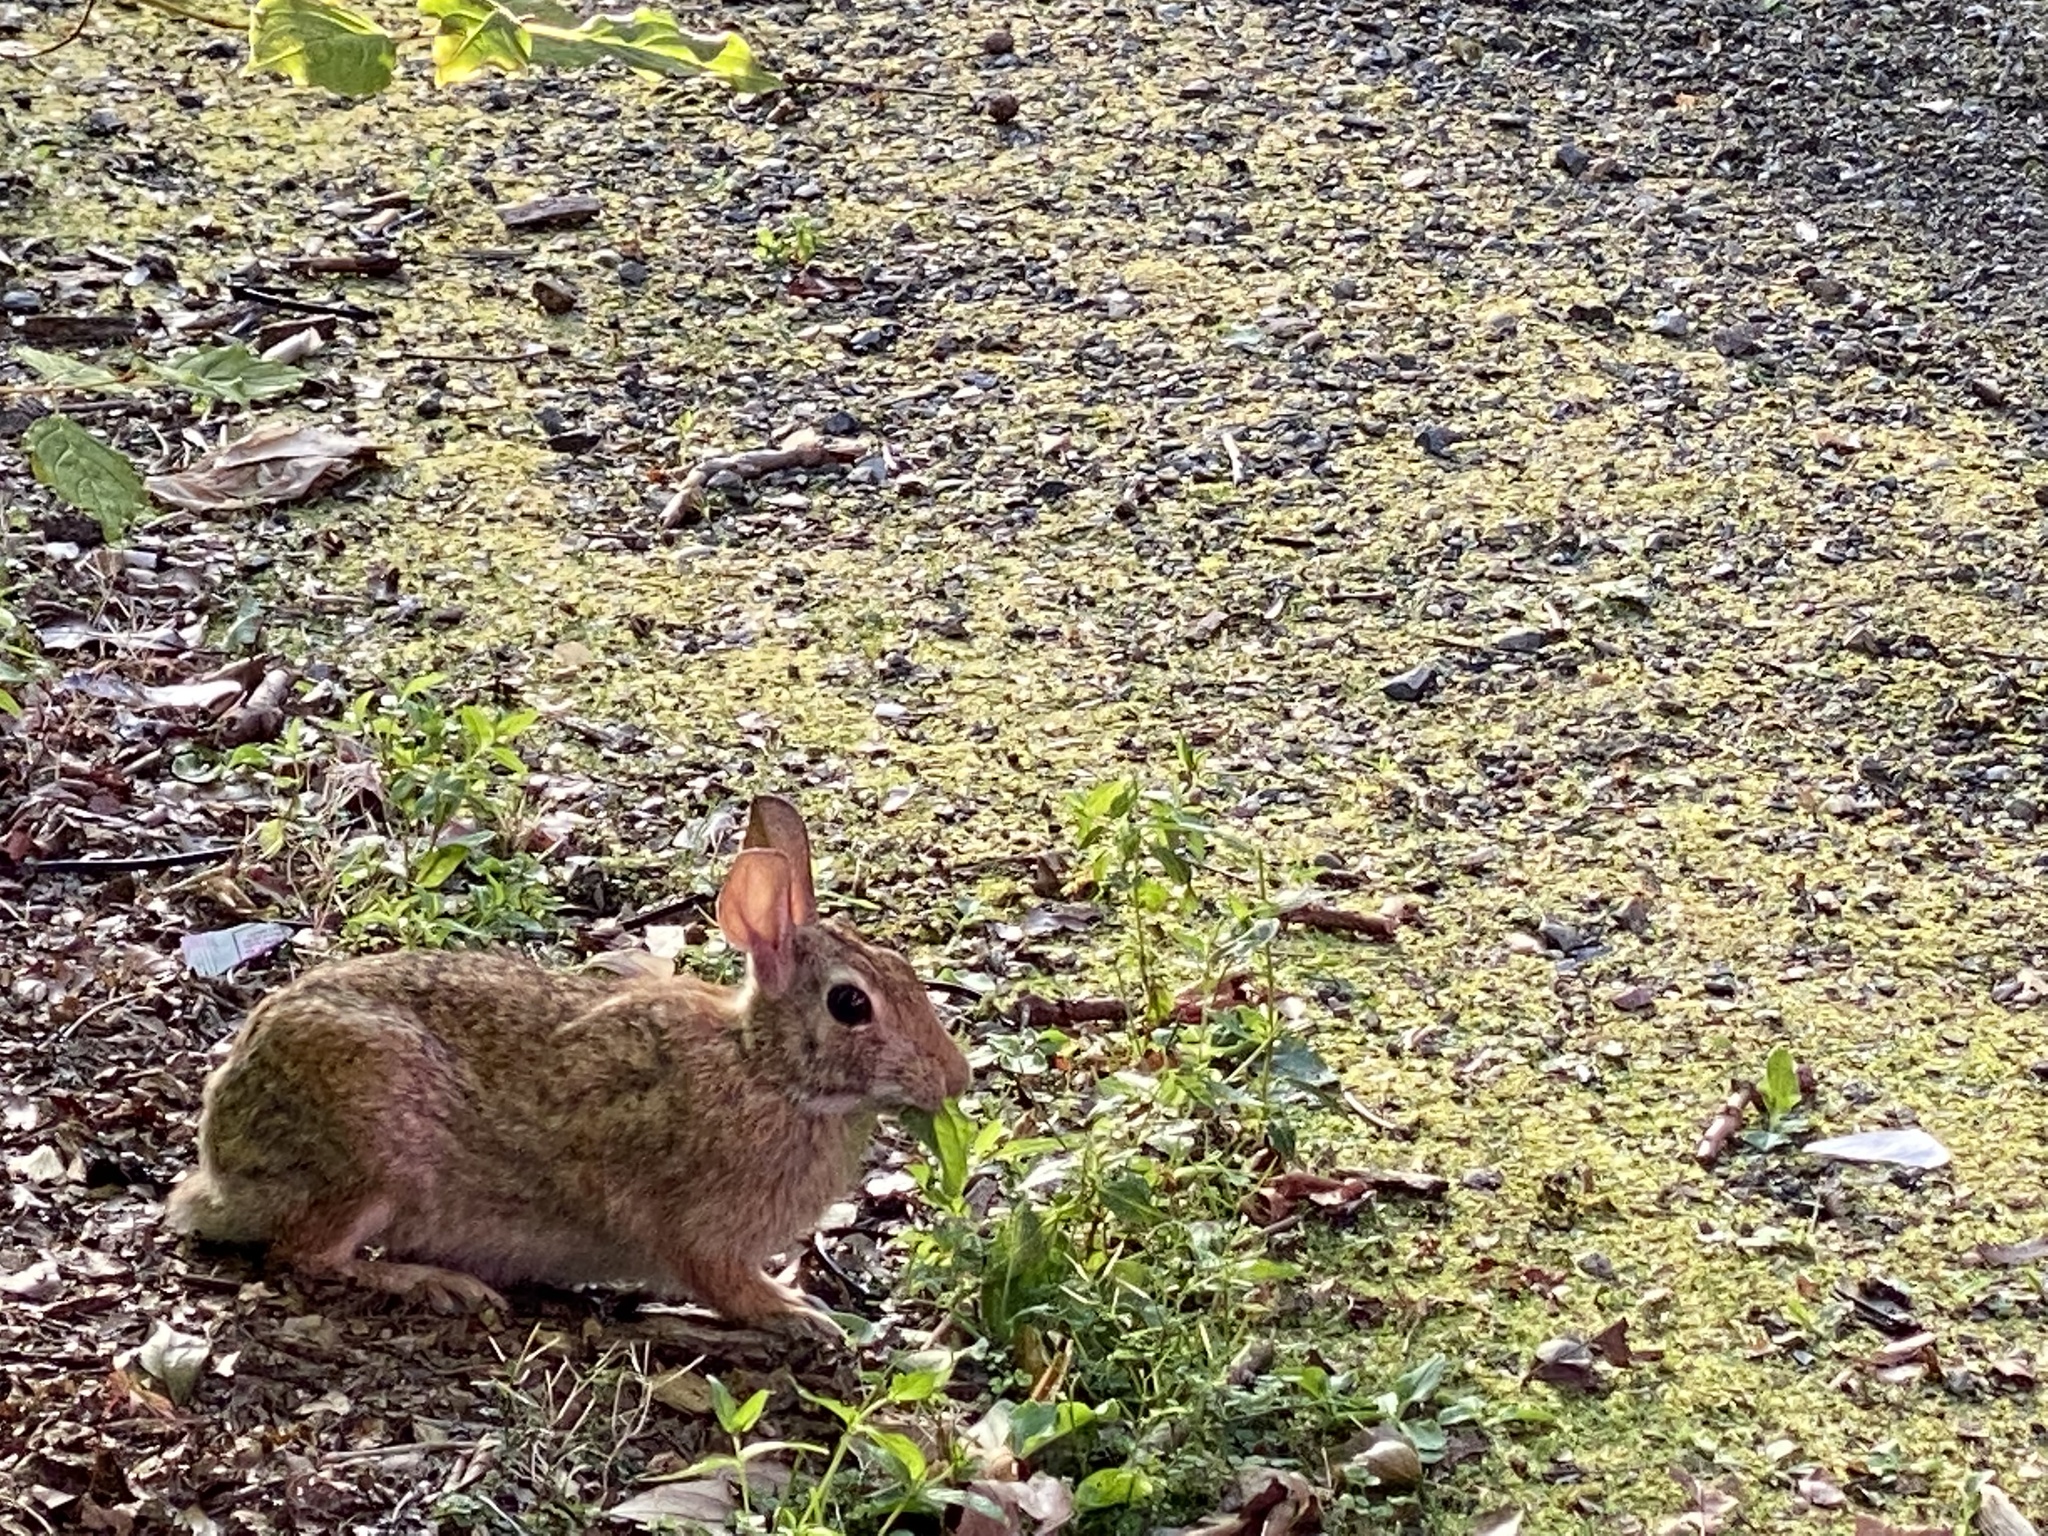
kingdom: Animalia
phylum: Chordata
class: Mammalia
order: Lagomorpha
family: Leporidae
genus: Sylvilagus
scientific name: Sylvilagus floridanus
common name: Eastern cottontail
